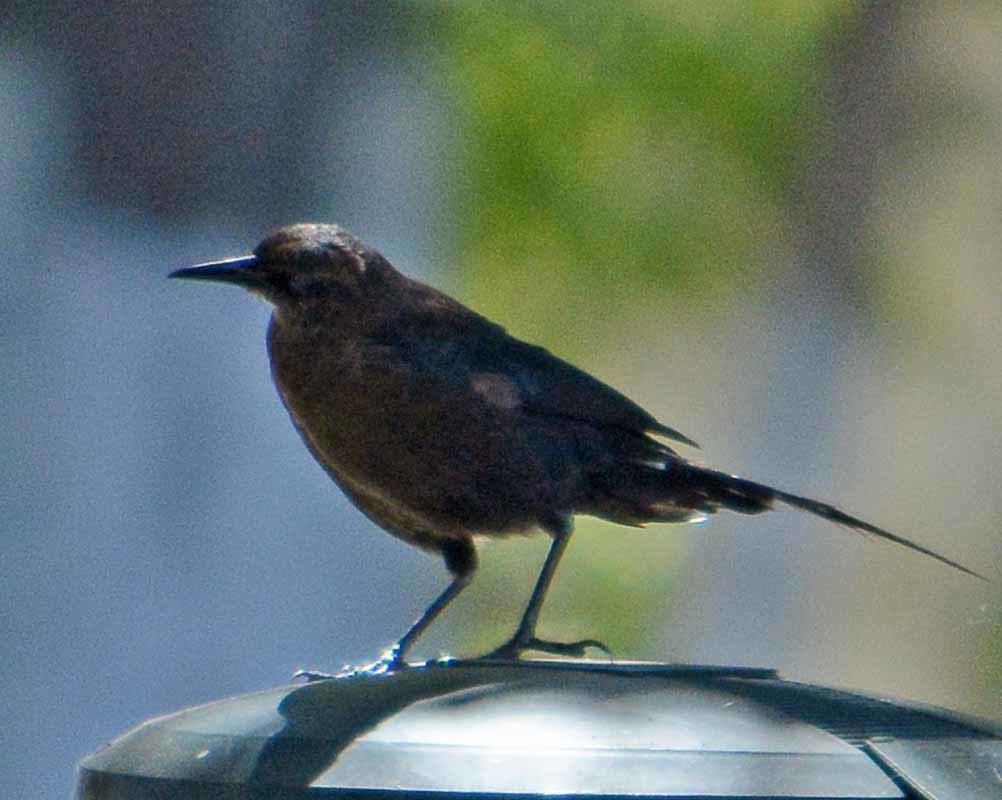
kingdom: Animalia
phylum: Chordata
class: Aves
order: Passeriformes
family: Icteridae
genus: Quiscalus
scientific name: Quiscalus mexicanus
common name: Great-tailed grackle
